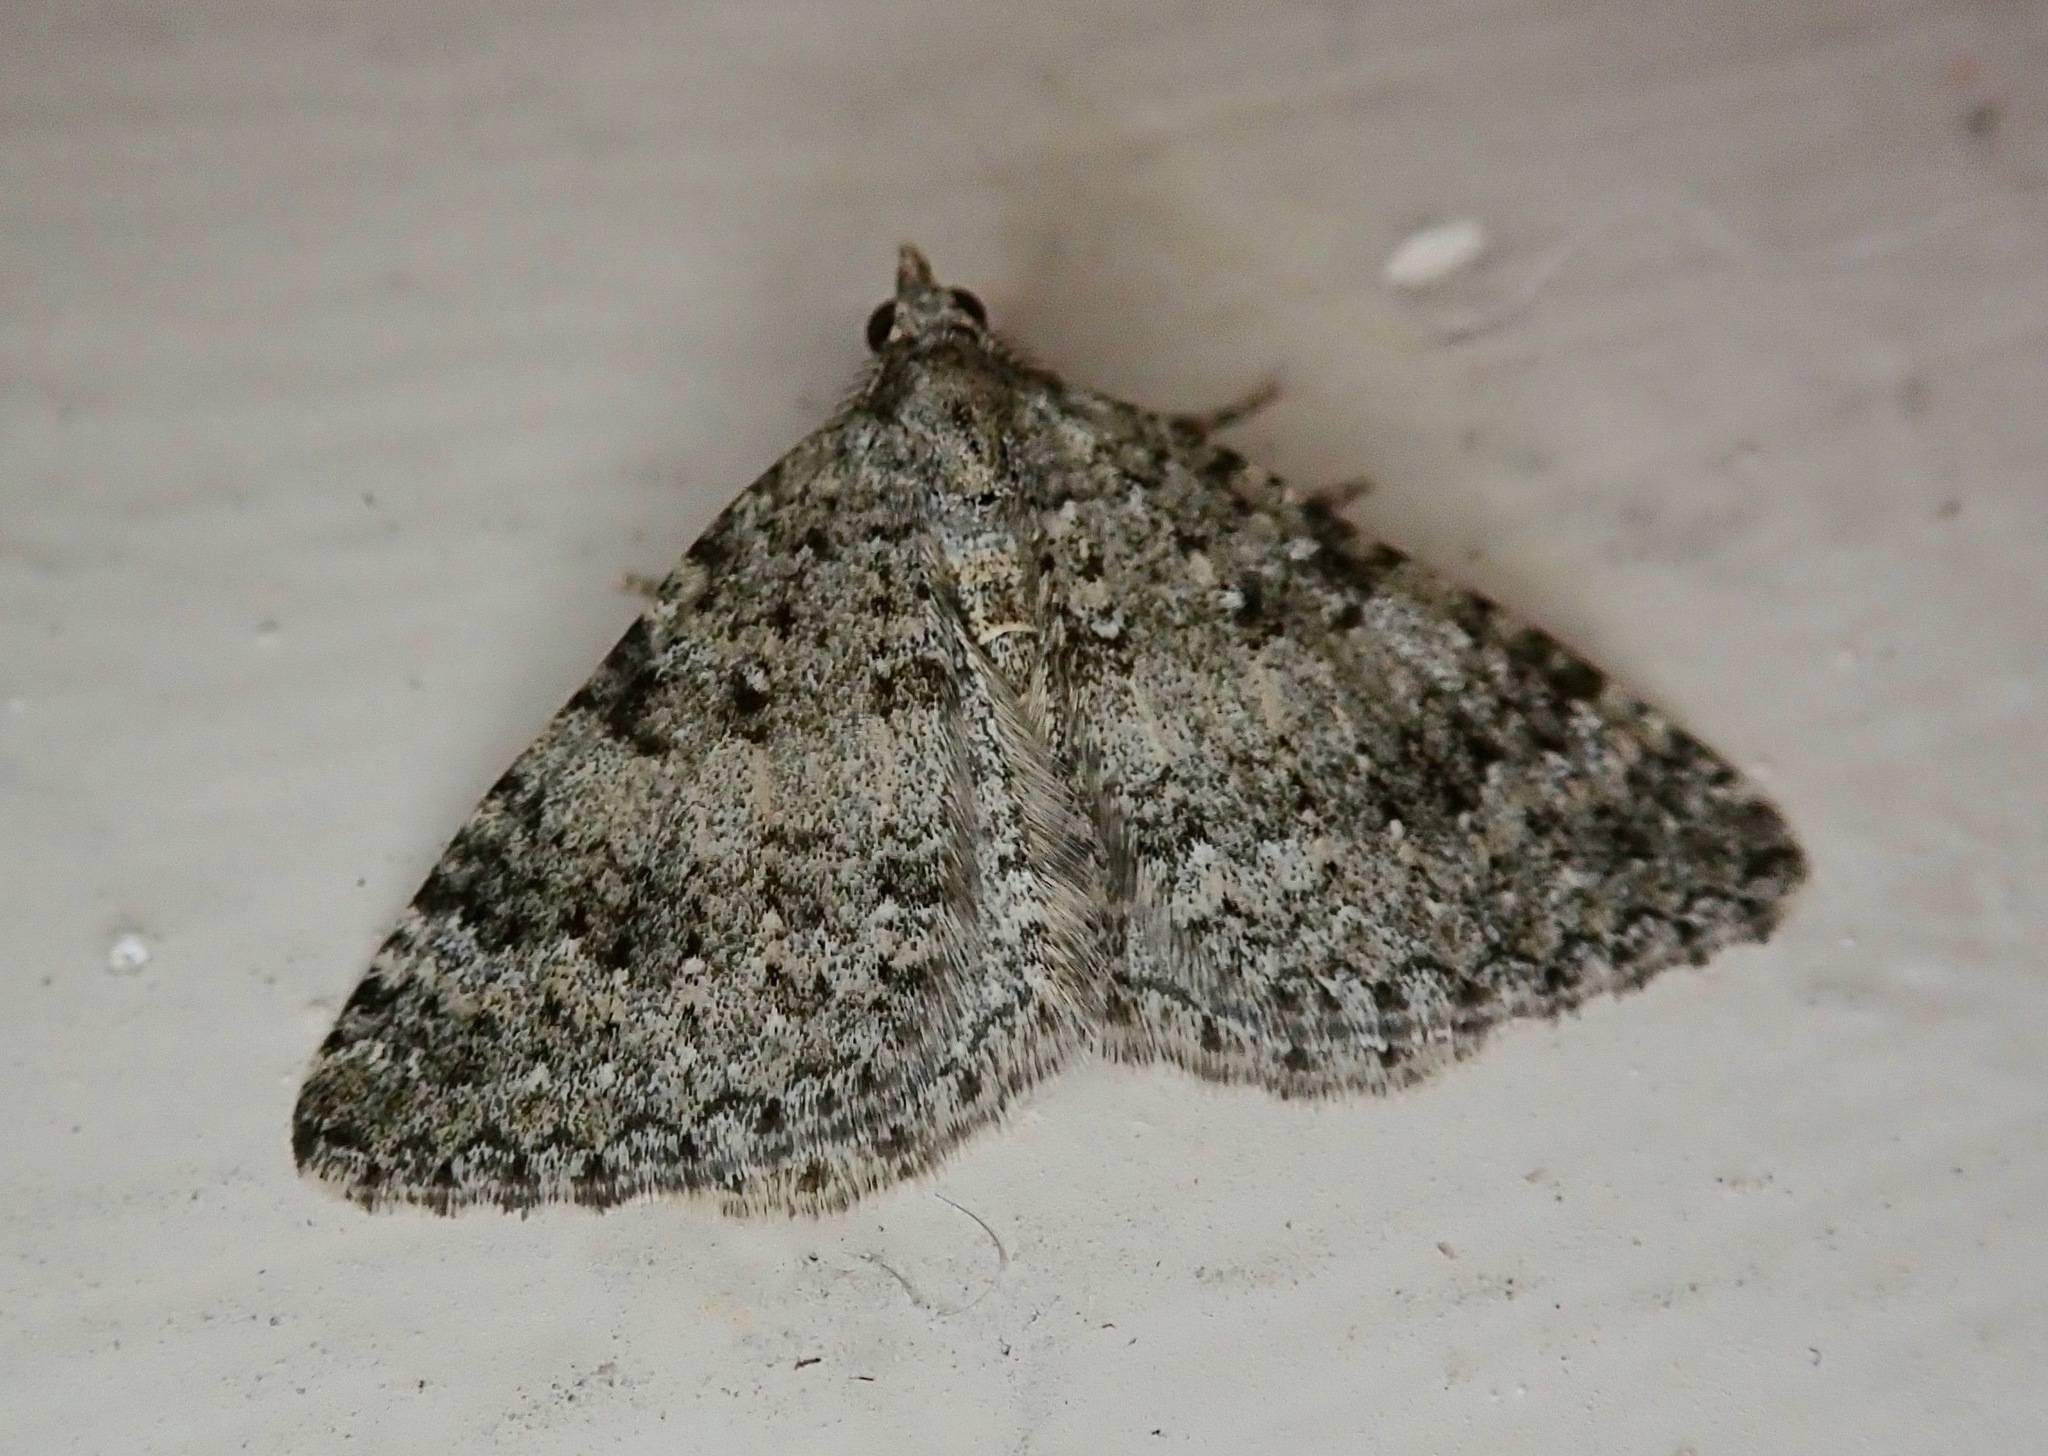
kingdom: Animalia
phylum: Arthropoda
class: Insecta
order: Lepidoptera
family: Geometridae
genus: Helastia
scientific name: Helastia corcularia
